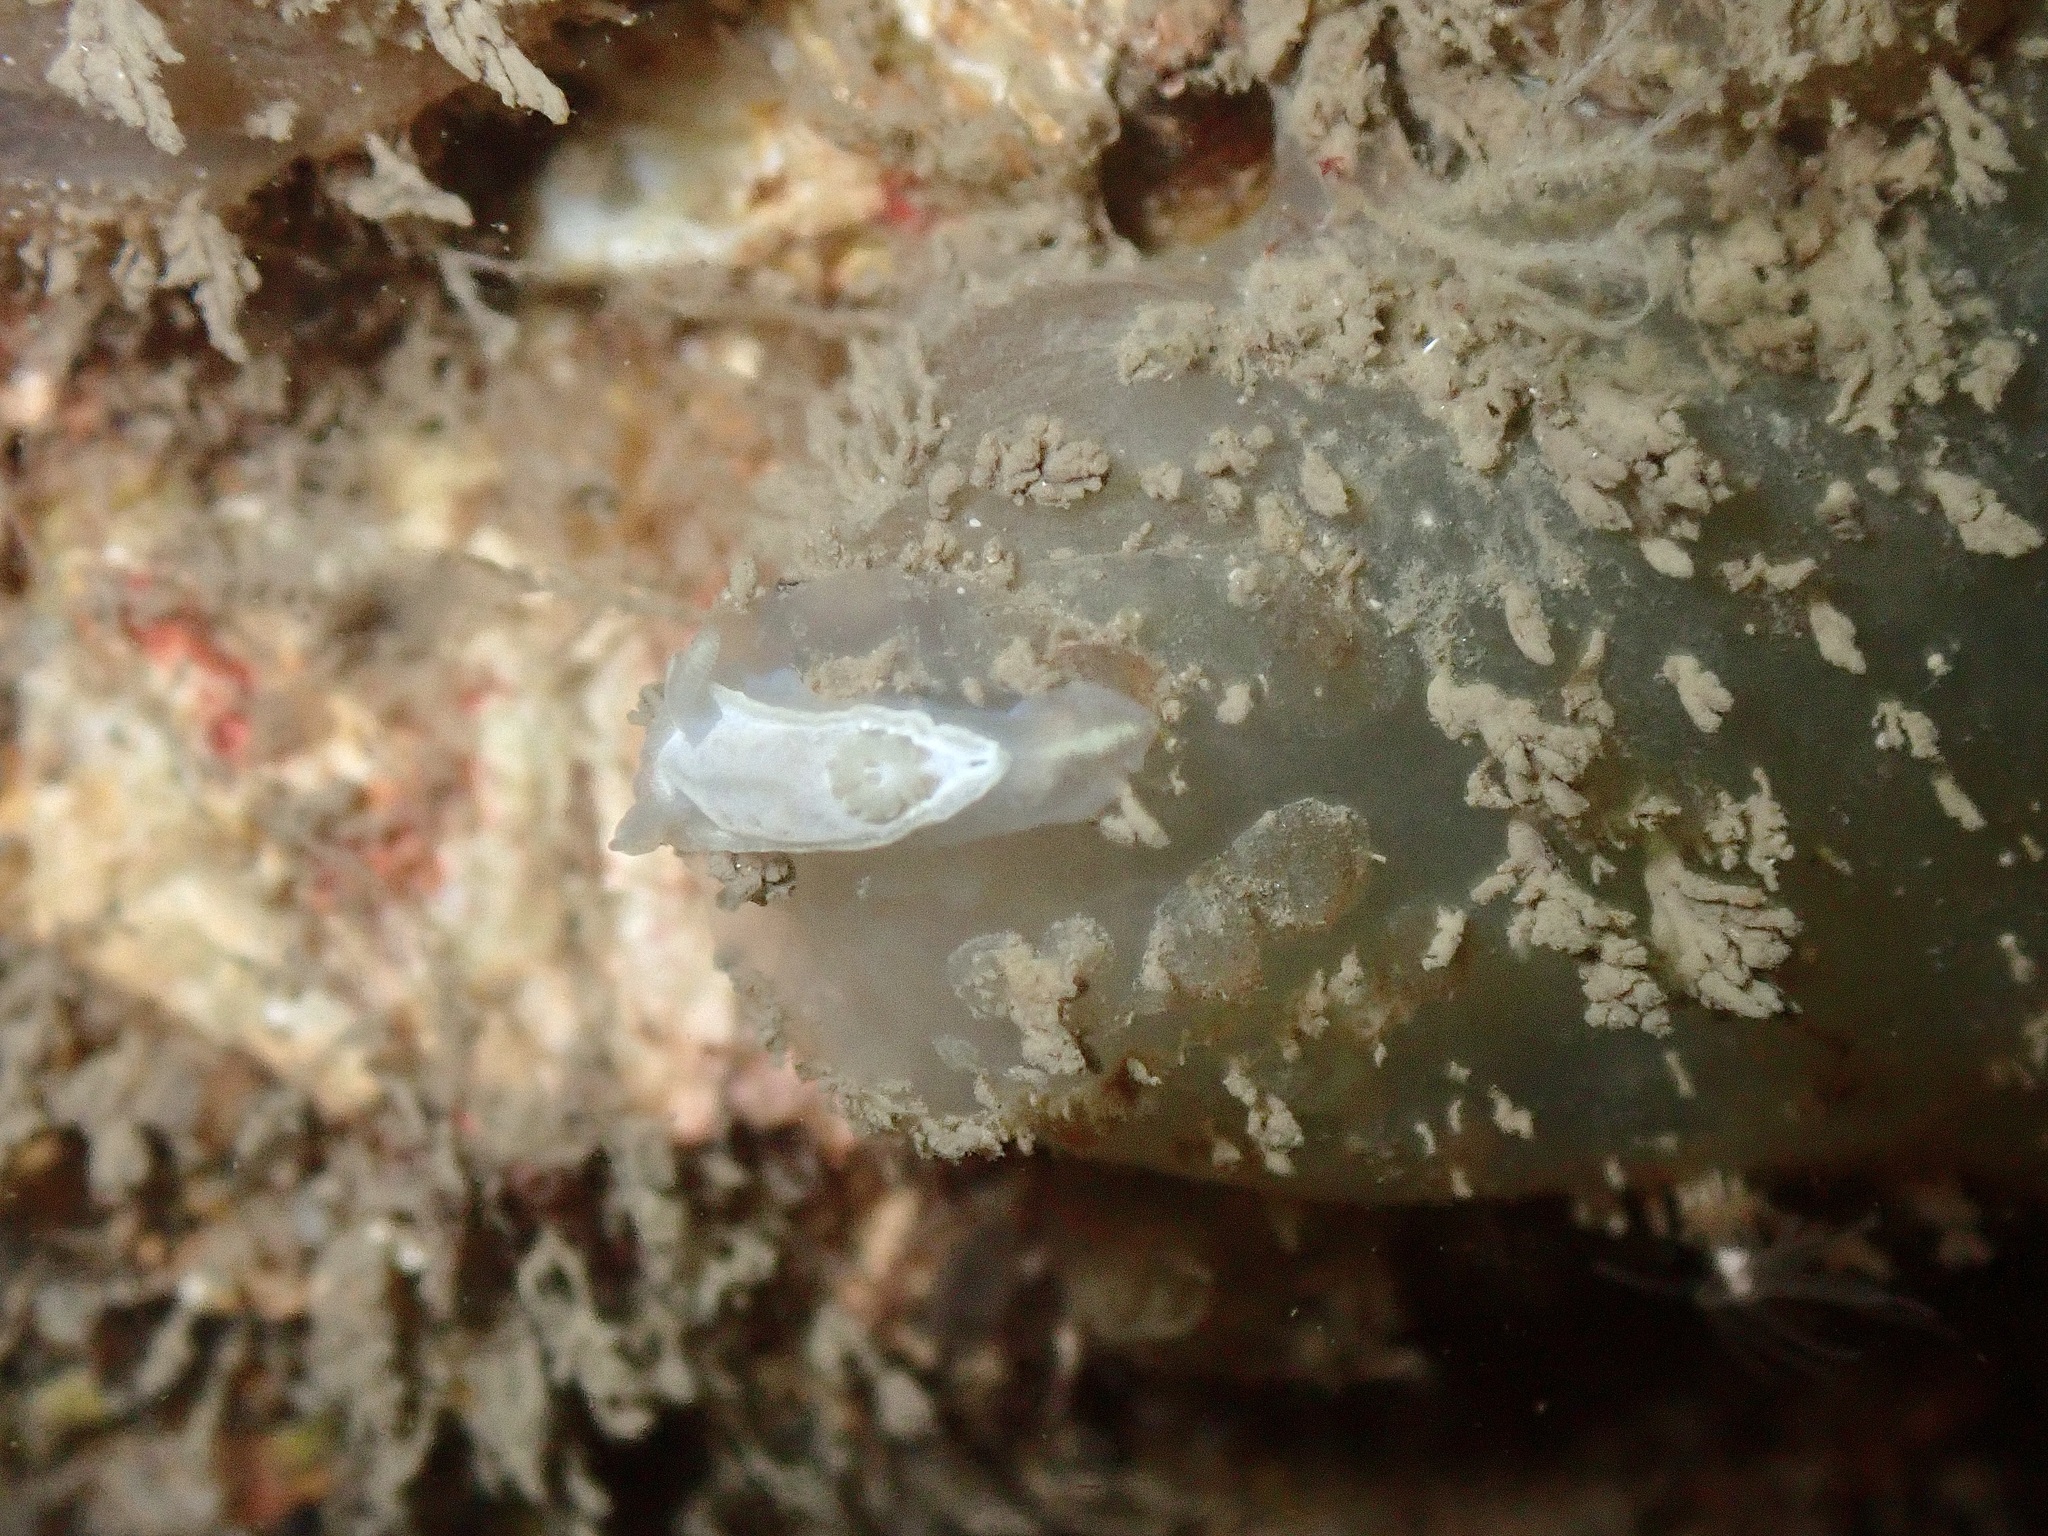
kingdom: Animalia
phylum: Mollusca
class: Gastropoda
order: Nudibranchia
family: Goniodorididae
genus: Okenia
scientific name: Okenia
